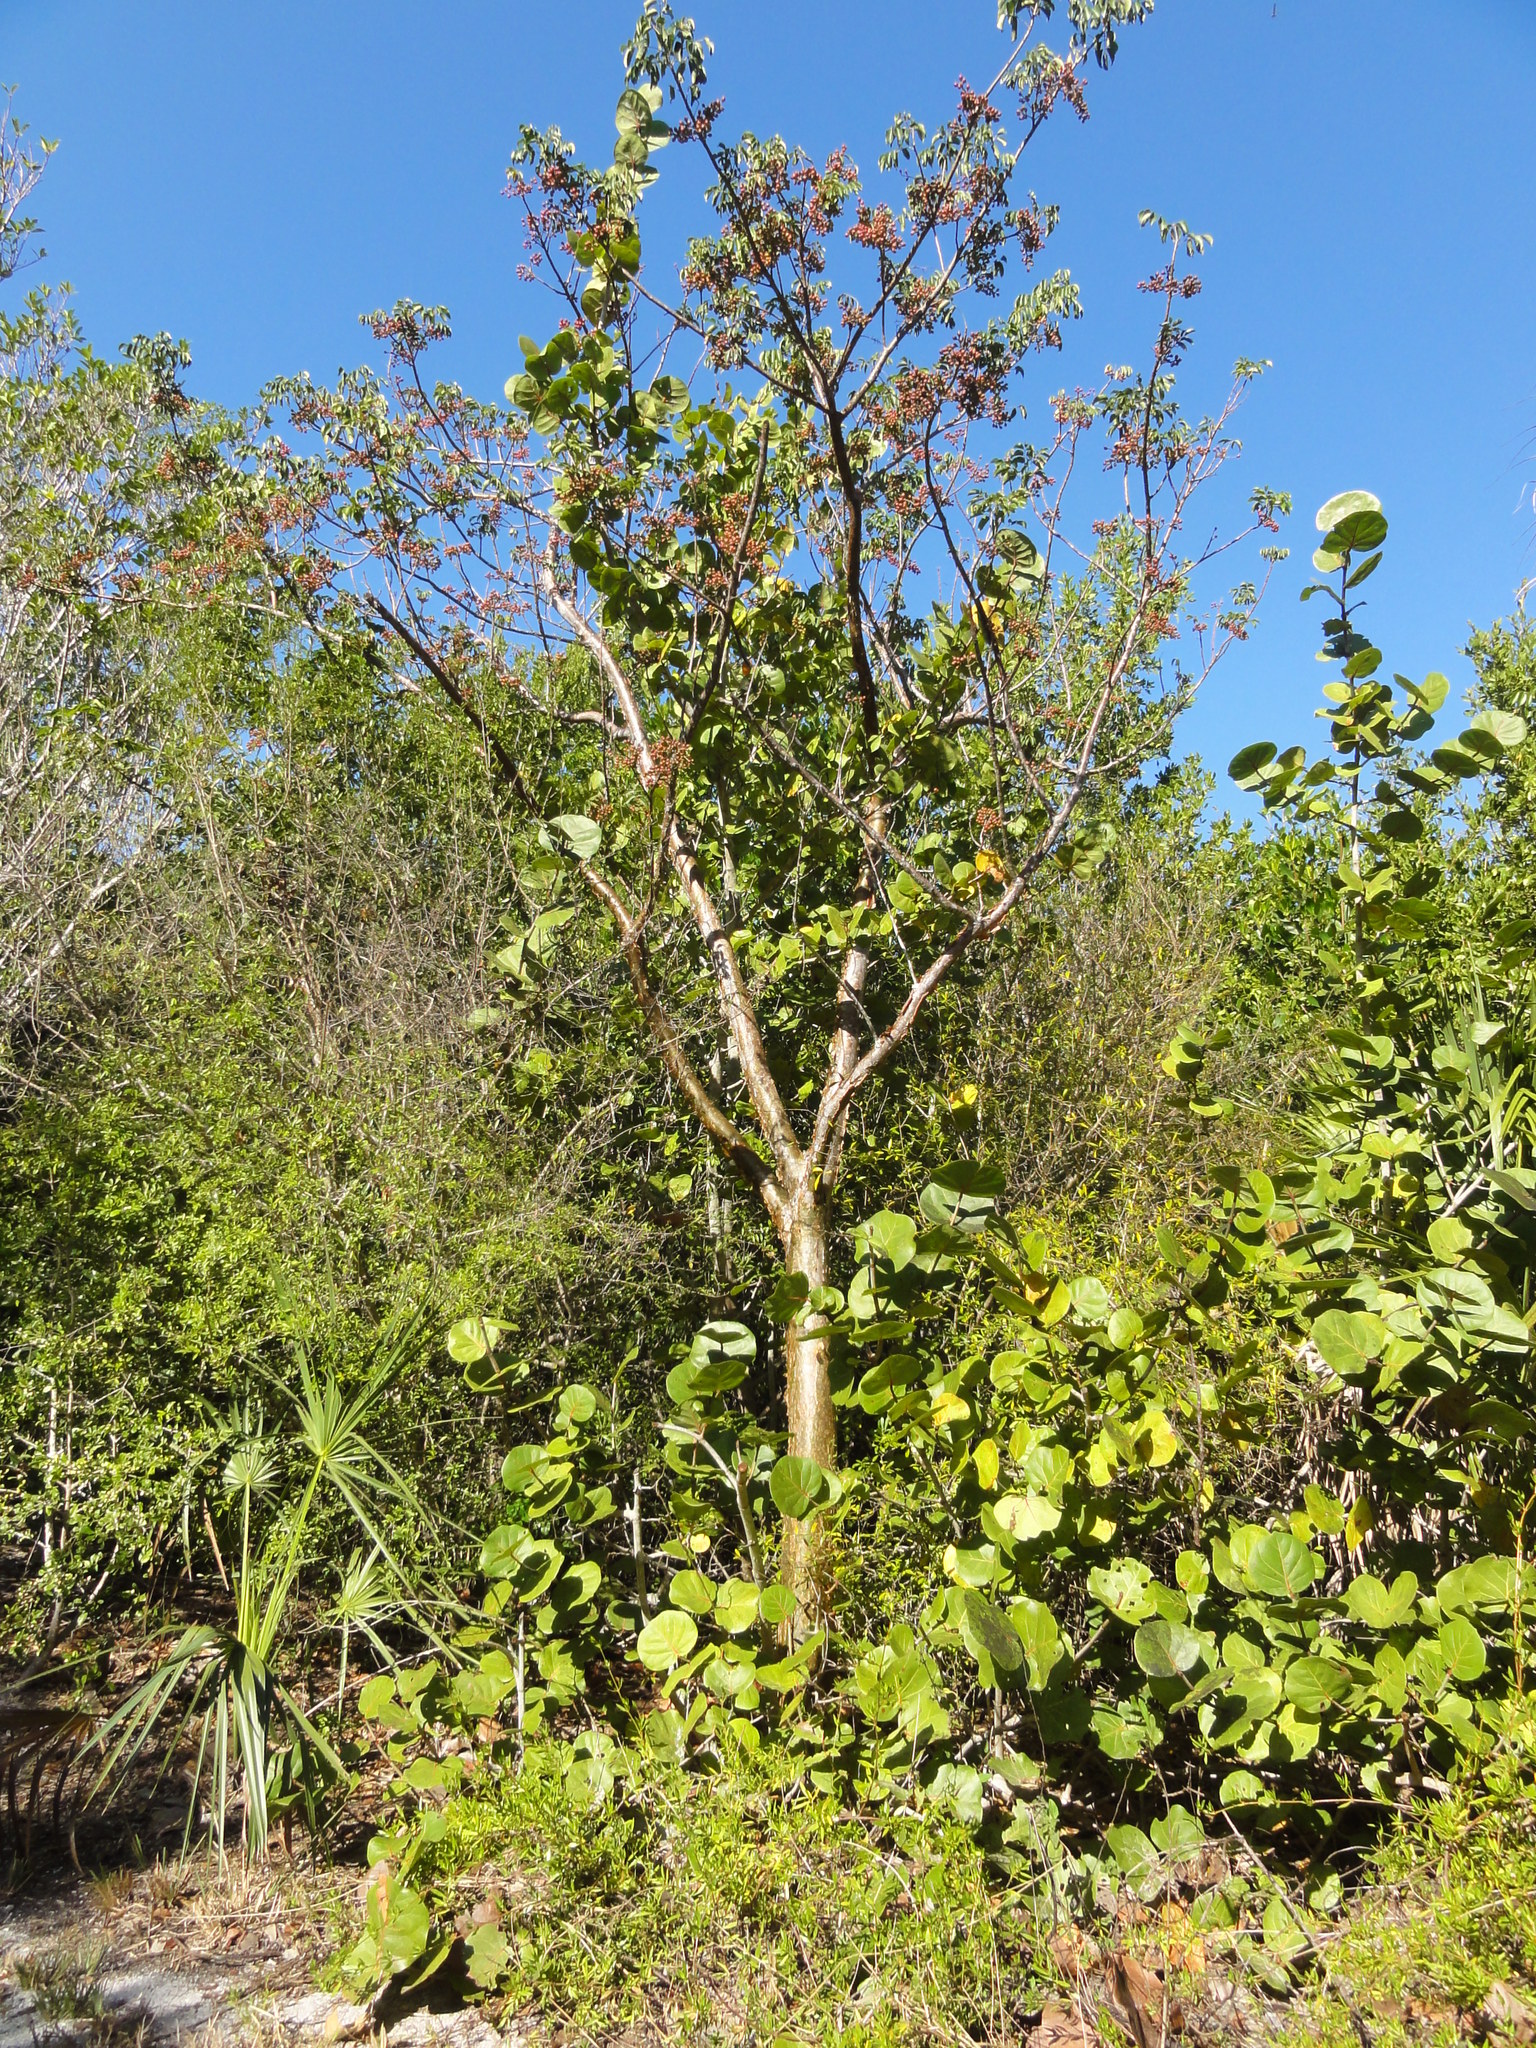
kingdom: Plantae
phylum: Tracheophyta
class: Magnoliopsida
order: Sapindales
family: Burseraceae
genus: Bursera
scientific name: Bursera simaruba
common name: Turpentine tree
